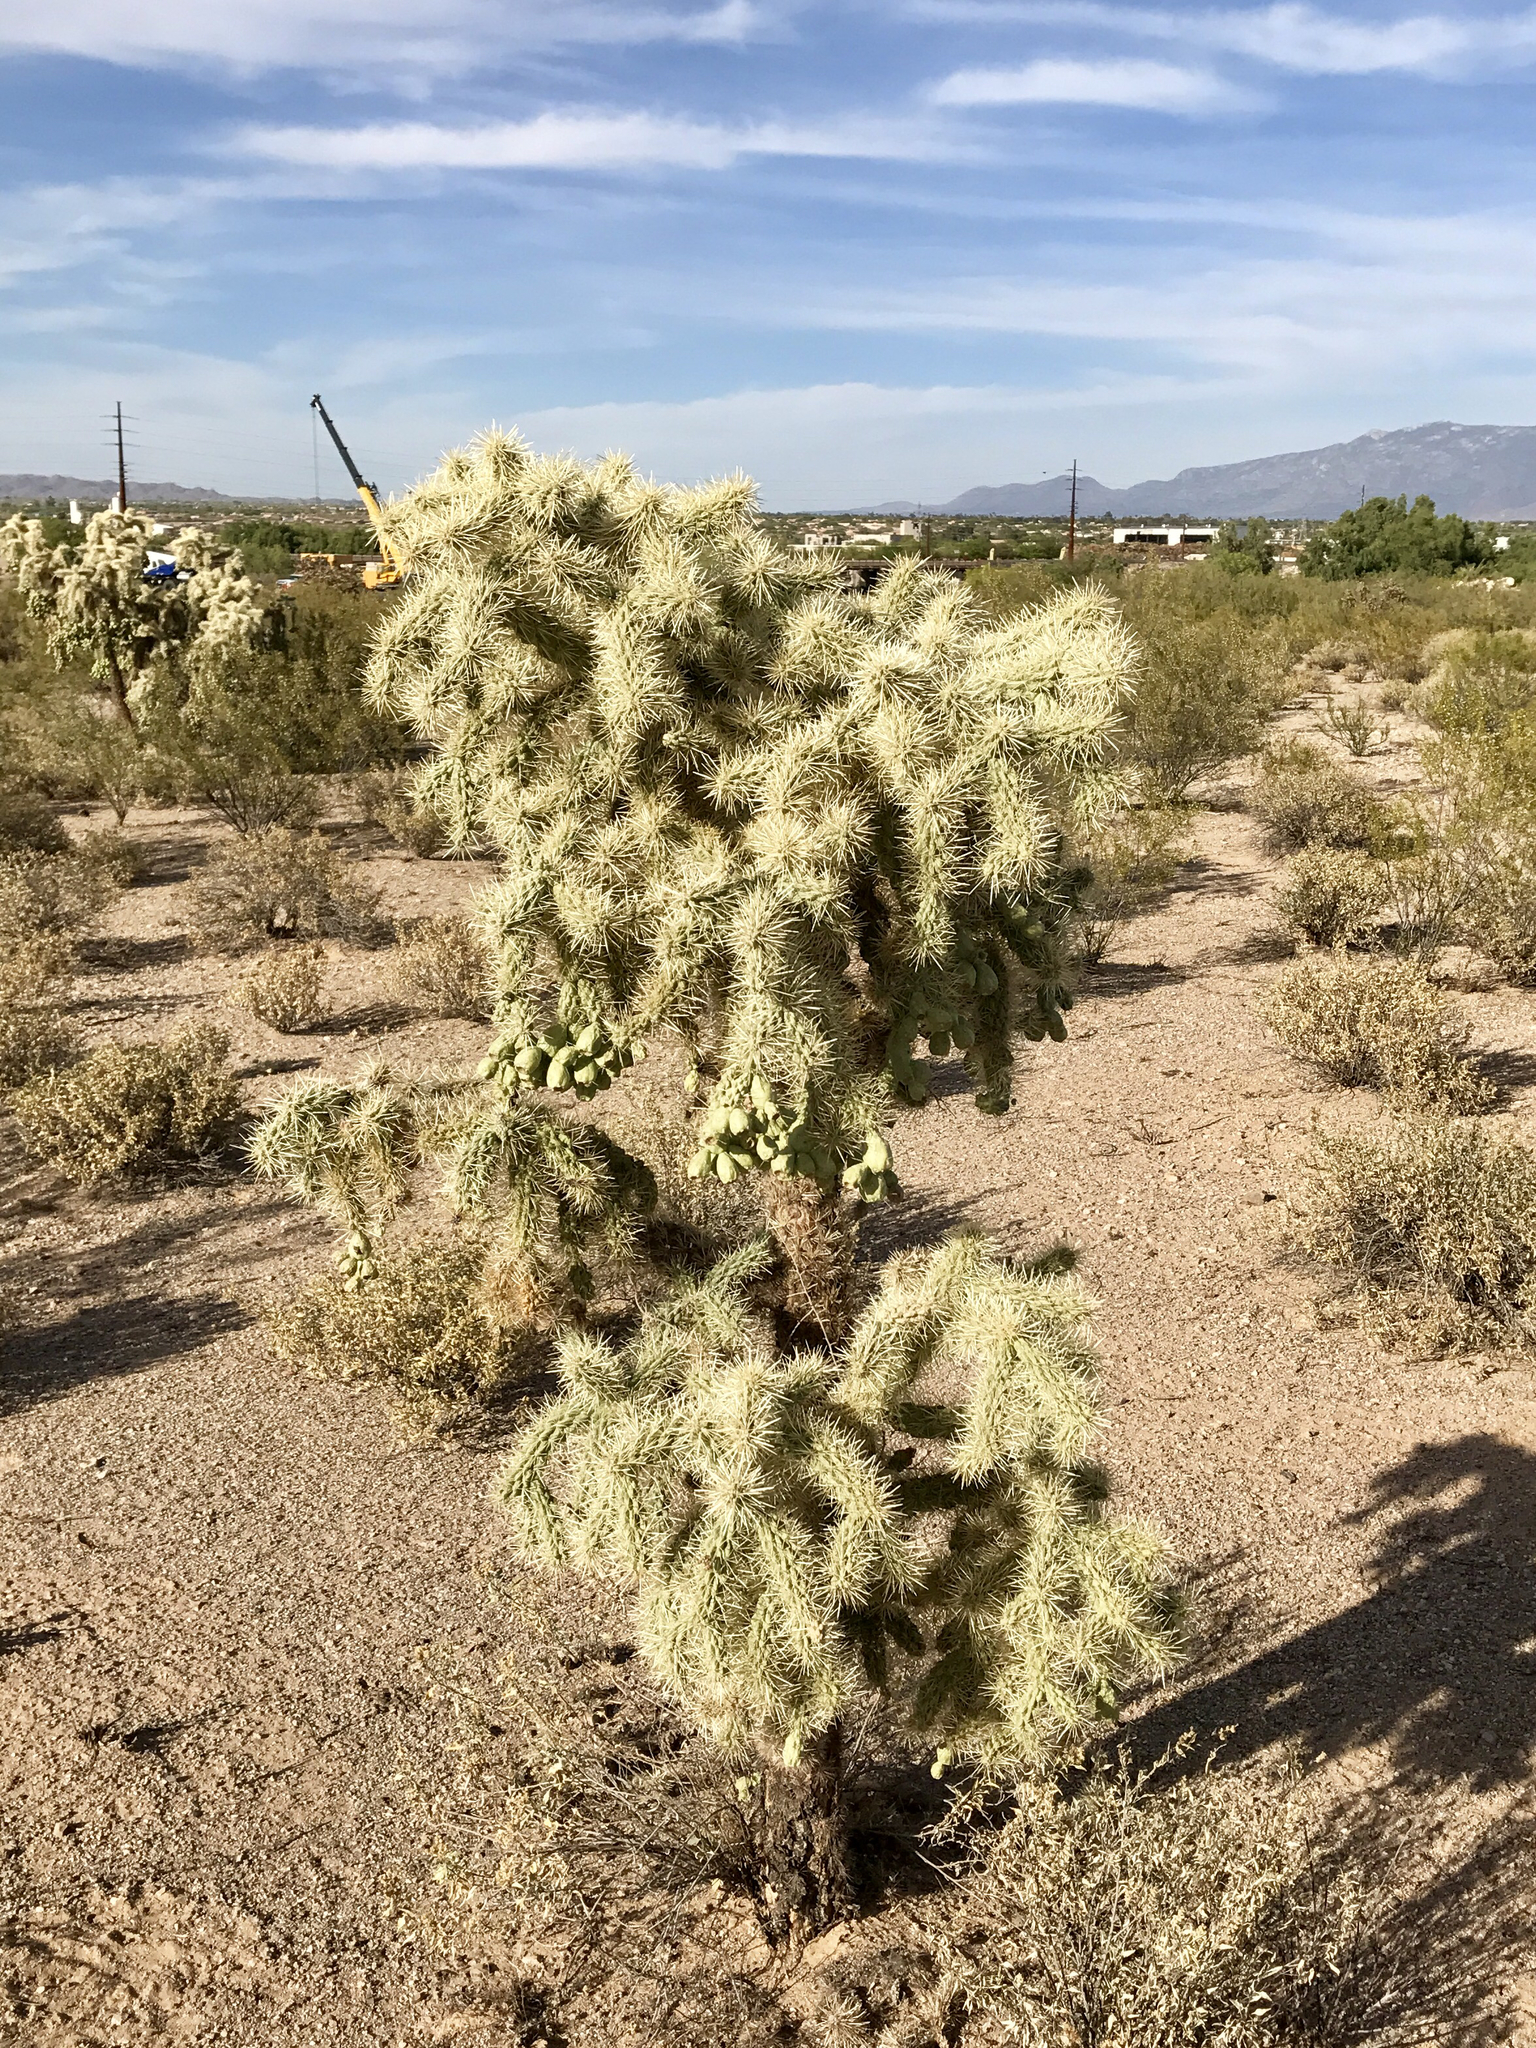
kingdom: Plantae
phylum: Tracheophyta
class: Magnoliopsida
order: Caryophyllales
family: Cactaceae
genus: Cylindropuntia
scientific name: Cylindropuntia fulgida
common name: Jumping cholla
